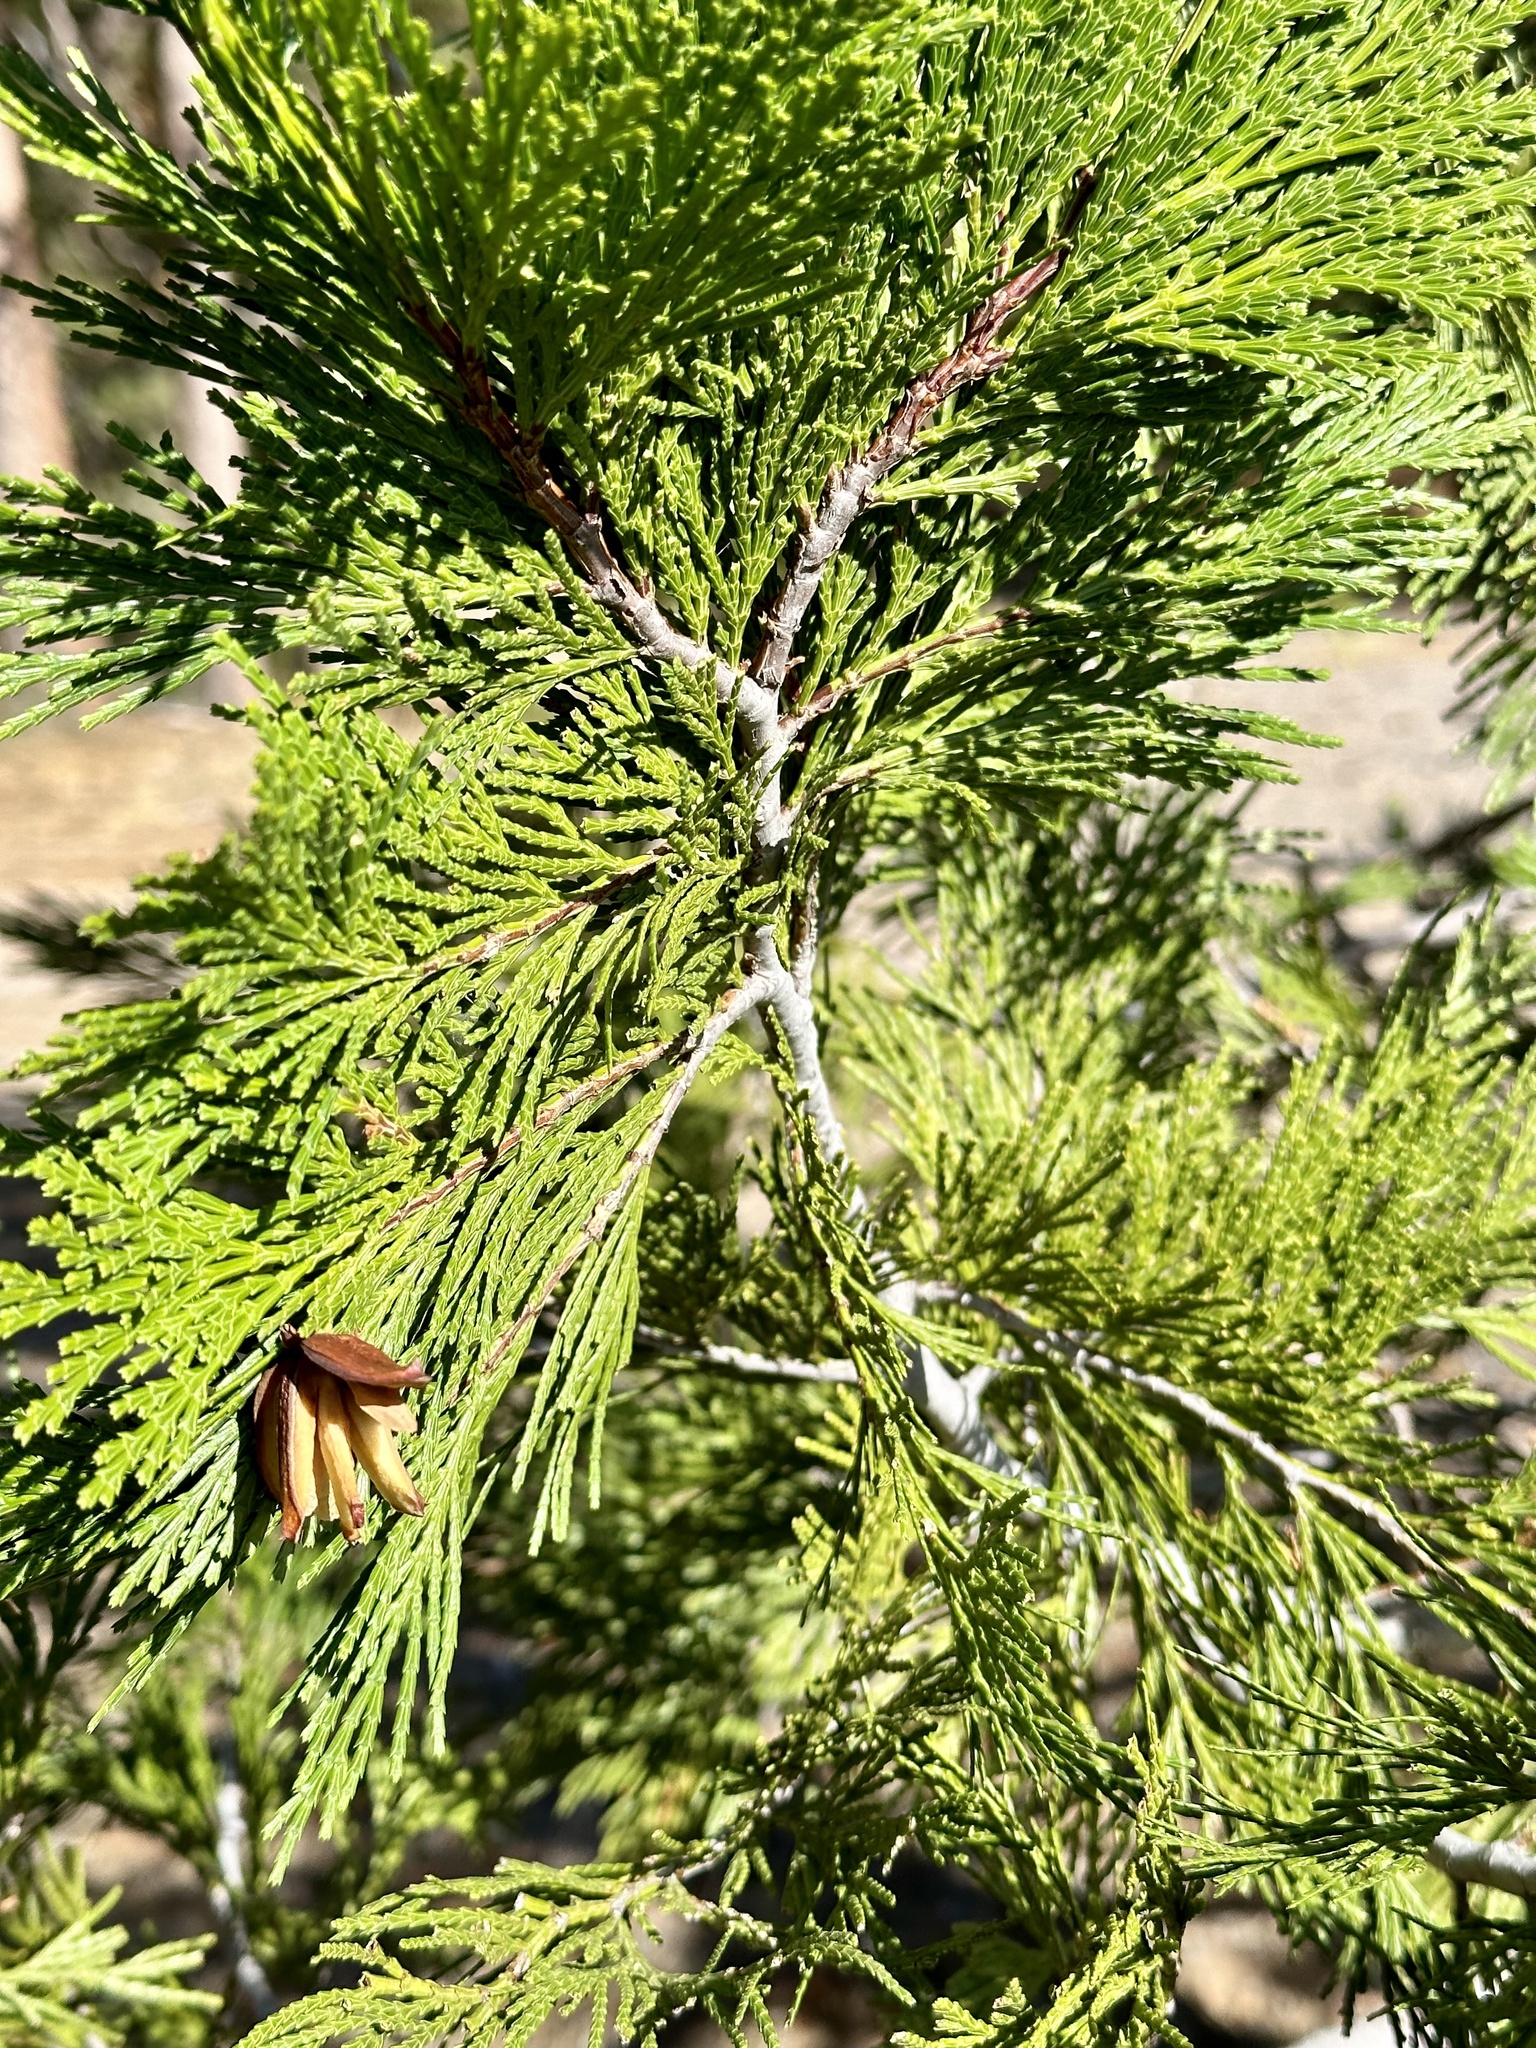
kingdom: Plantae
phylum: Tracheophyta
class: Pinopsida
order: Pinales
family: Cupressaceae
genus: Calocedrus
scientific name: Calocedrus decurrens
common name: Californian incense-cedar
